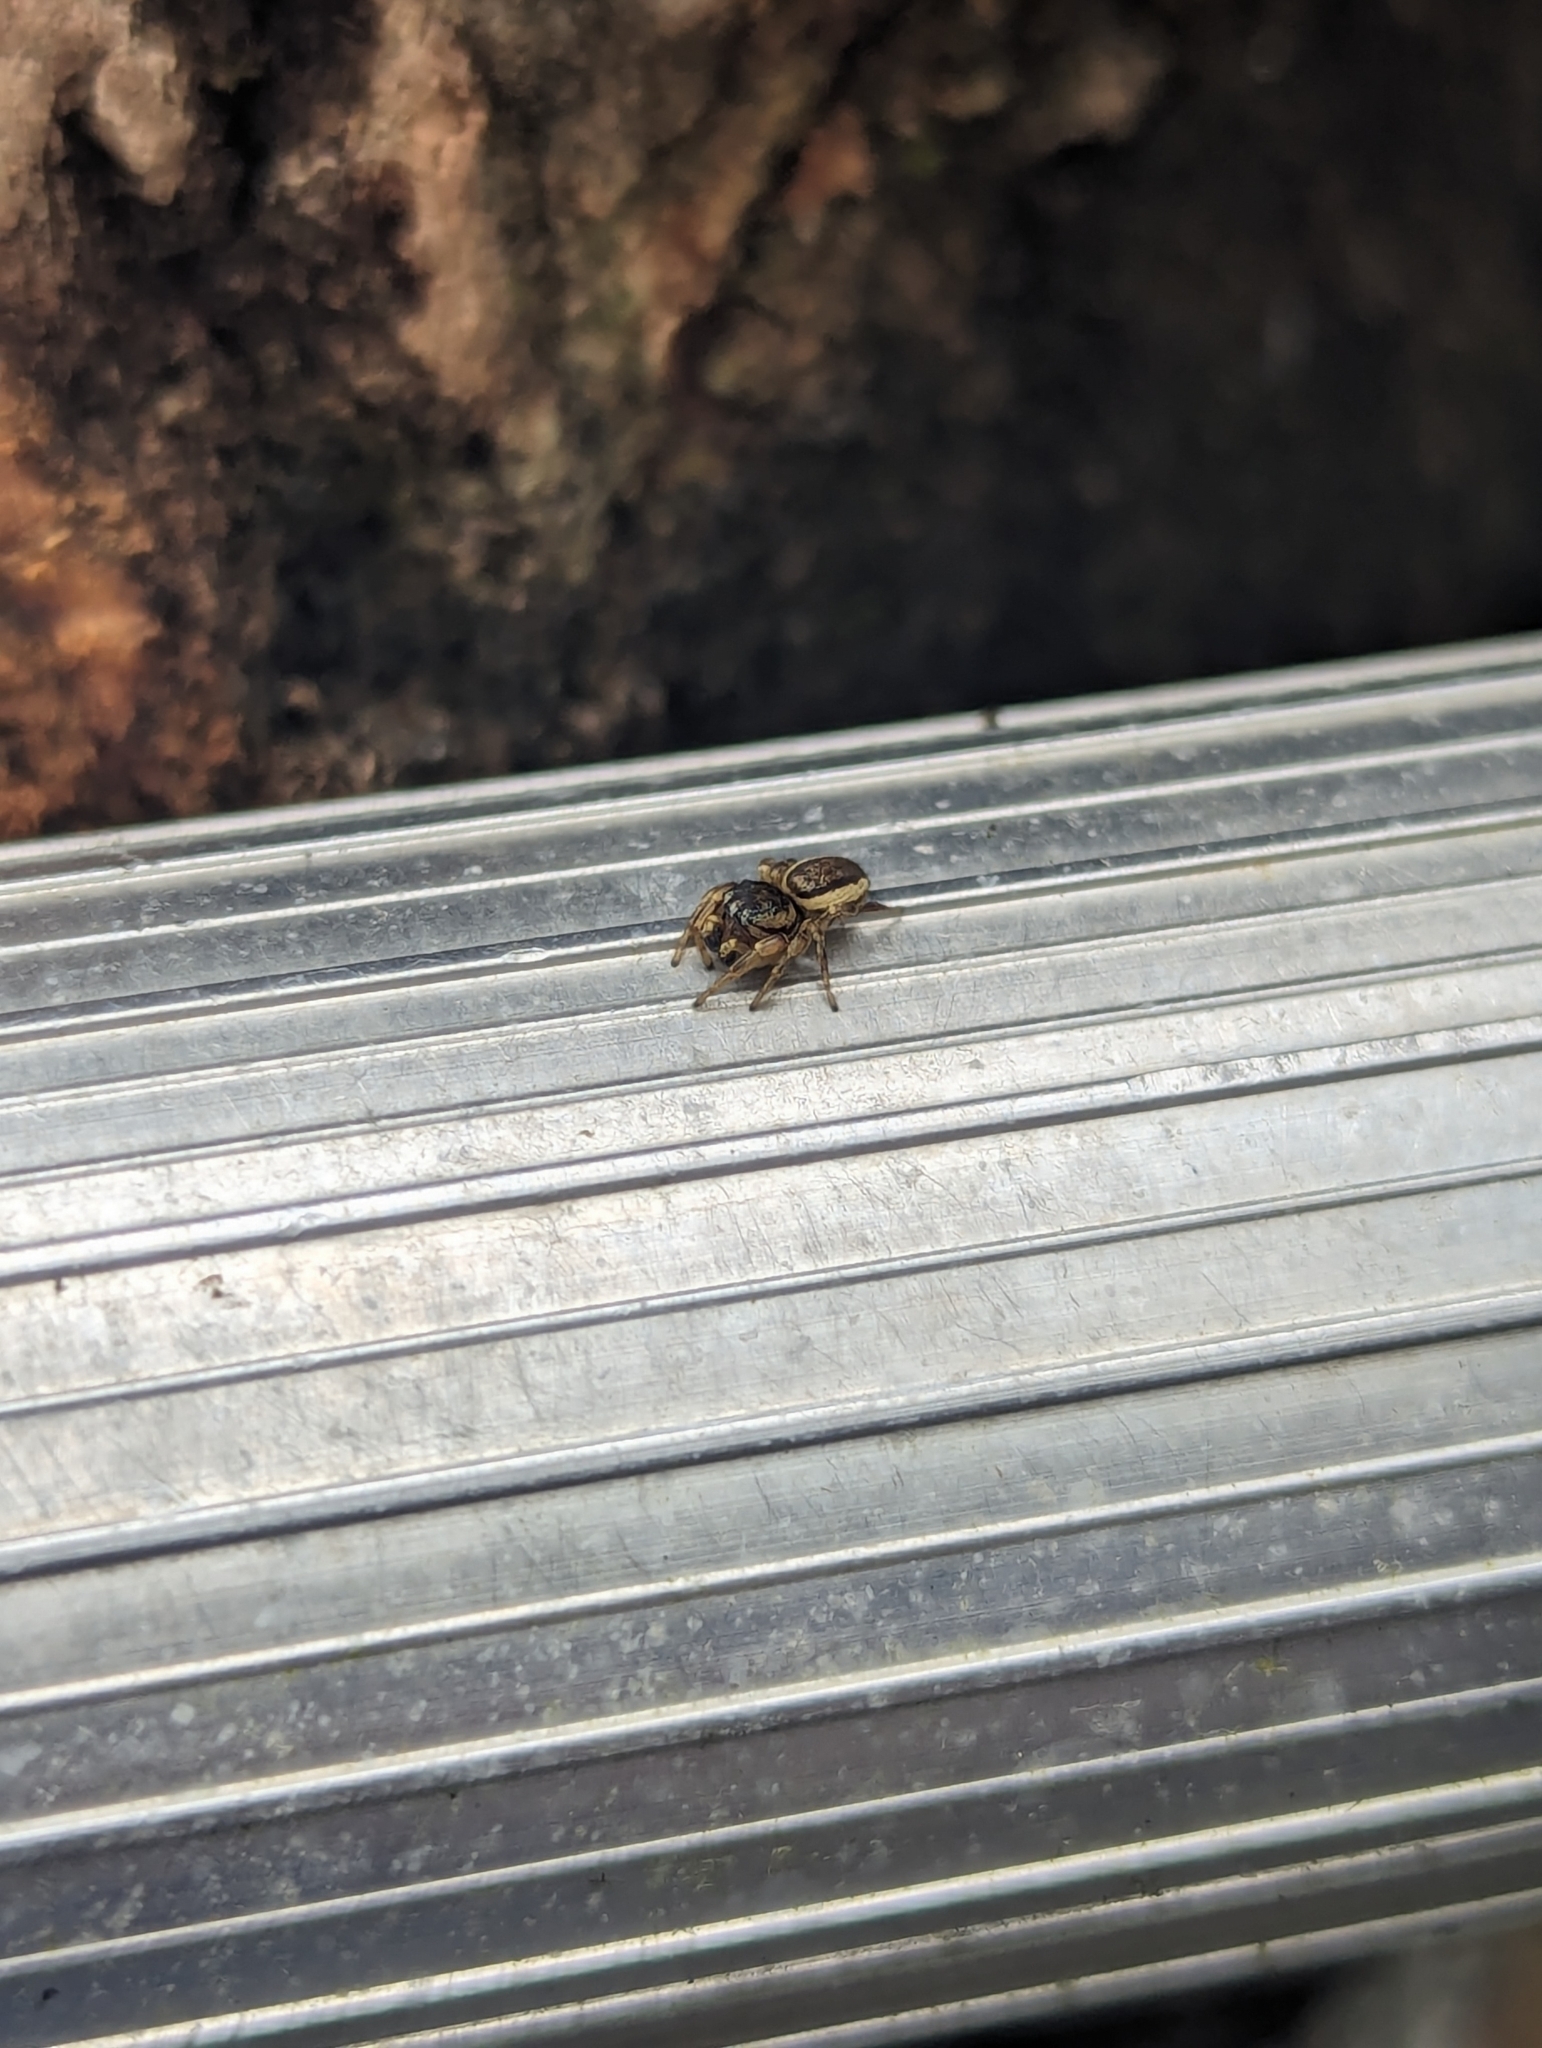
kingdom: Animalia
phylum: Arthropoda
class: Arachnida
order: Araneae
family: Salticidae
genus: Pelegrina
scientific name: Pelegrina flavipes
